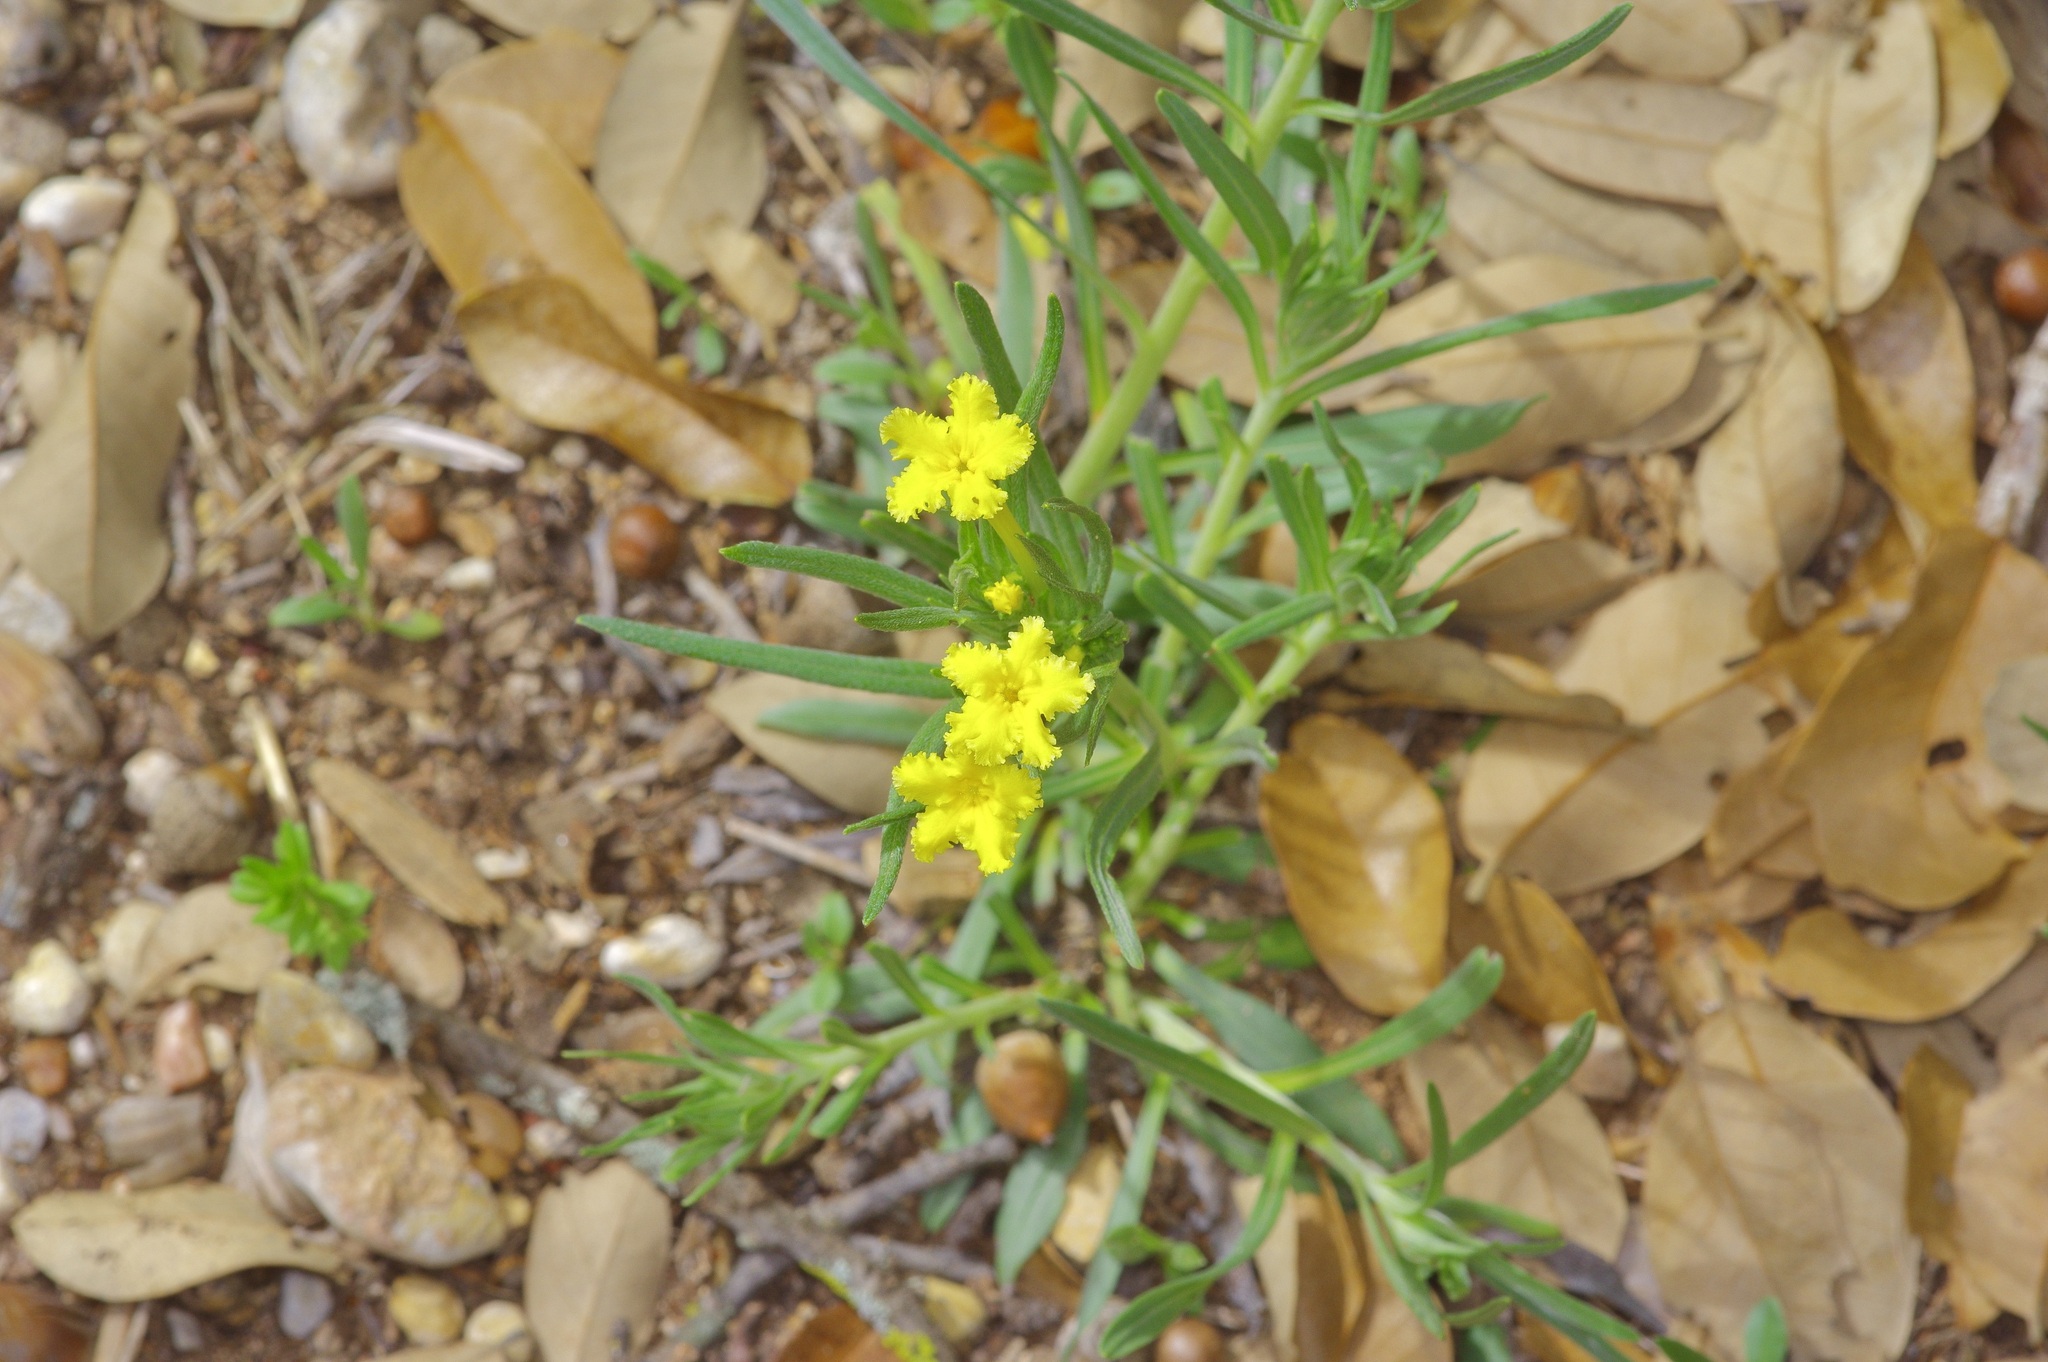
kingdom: Plantae
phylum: Tracheophyta
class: Magnoliopsida
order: Boraginales
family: Boraginaceae
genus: Lithospermum
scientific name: Lithospermum incisum
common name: Fringed gromwell
